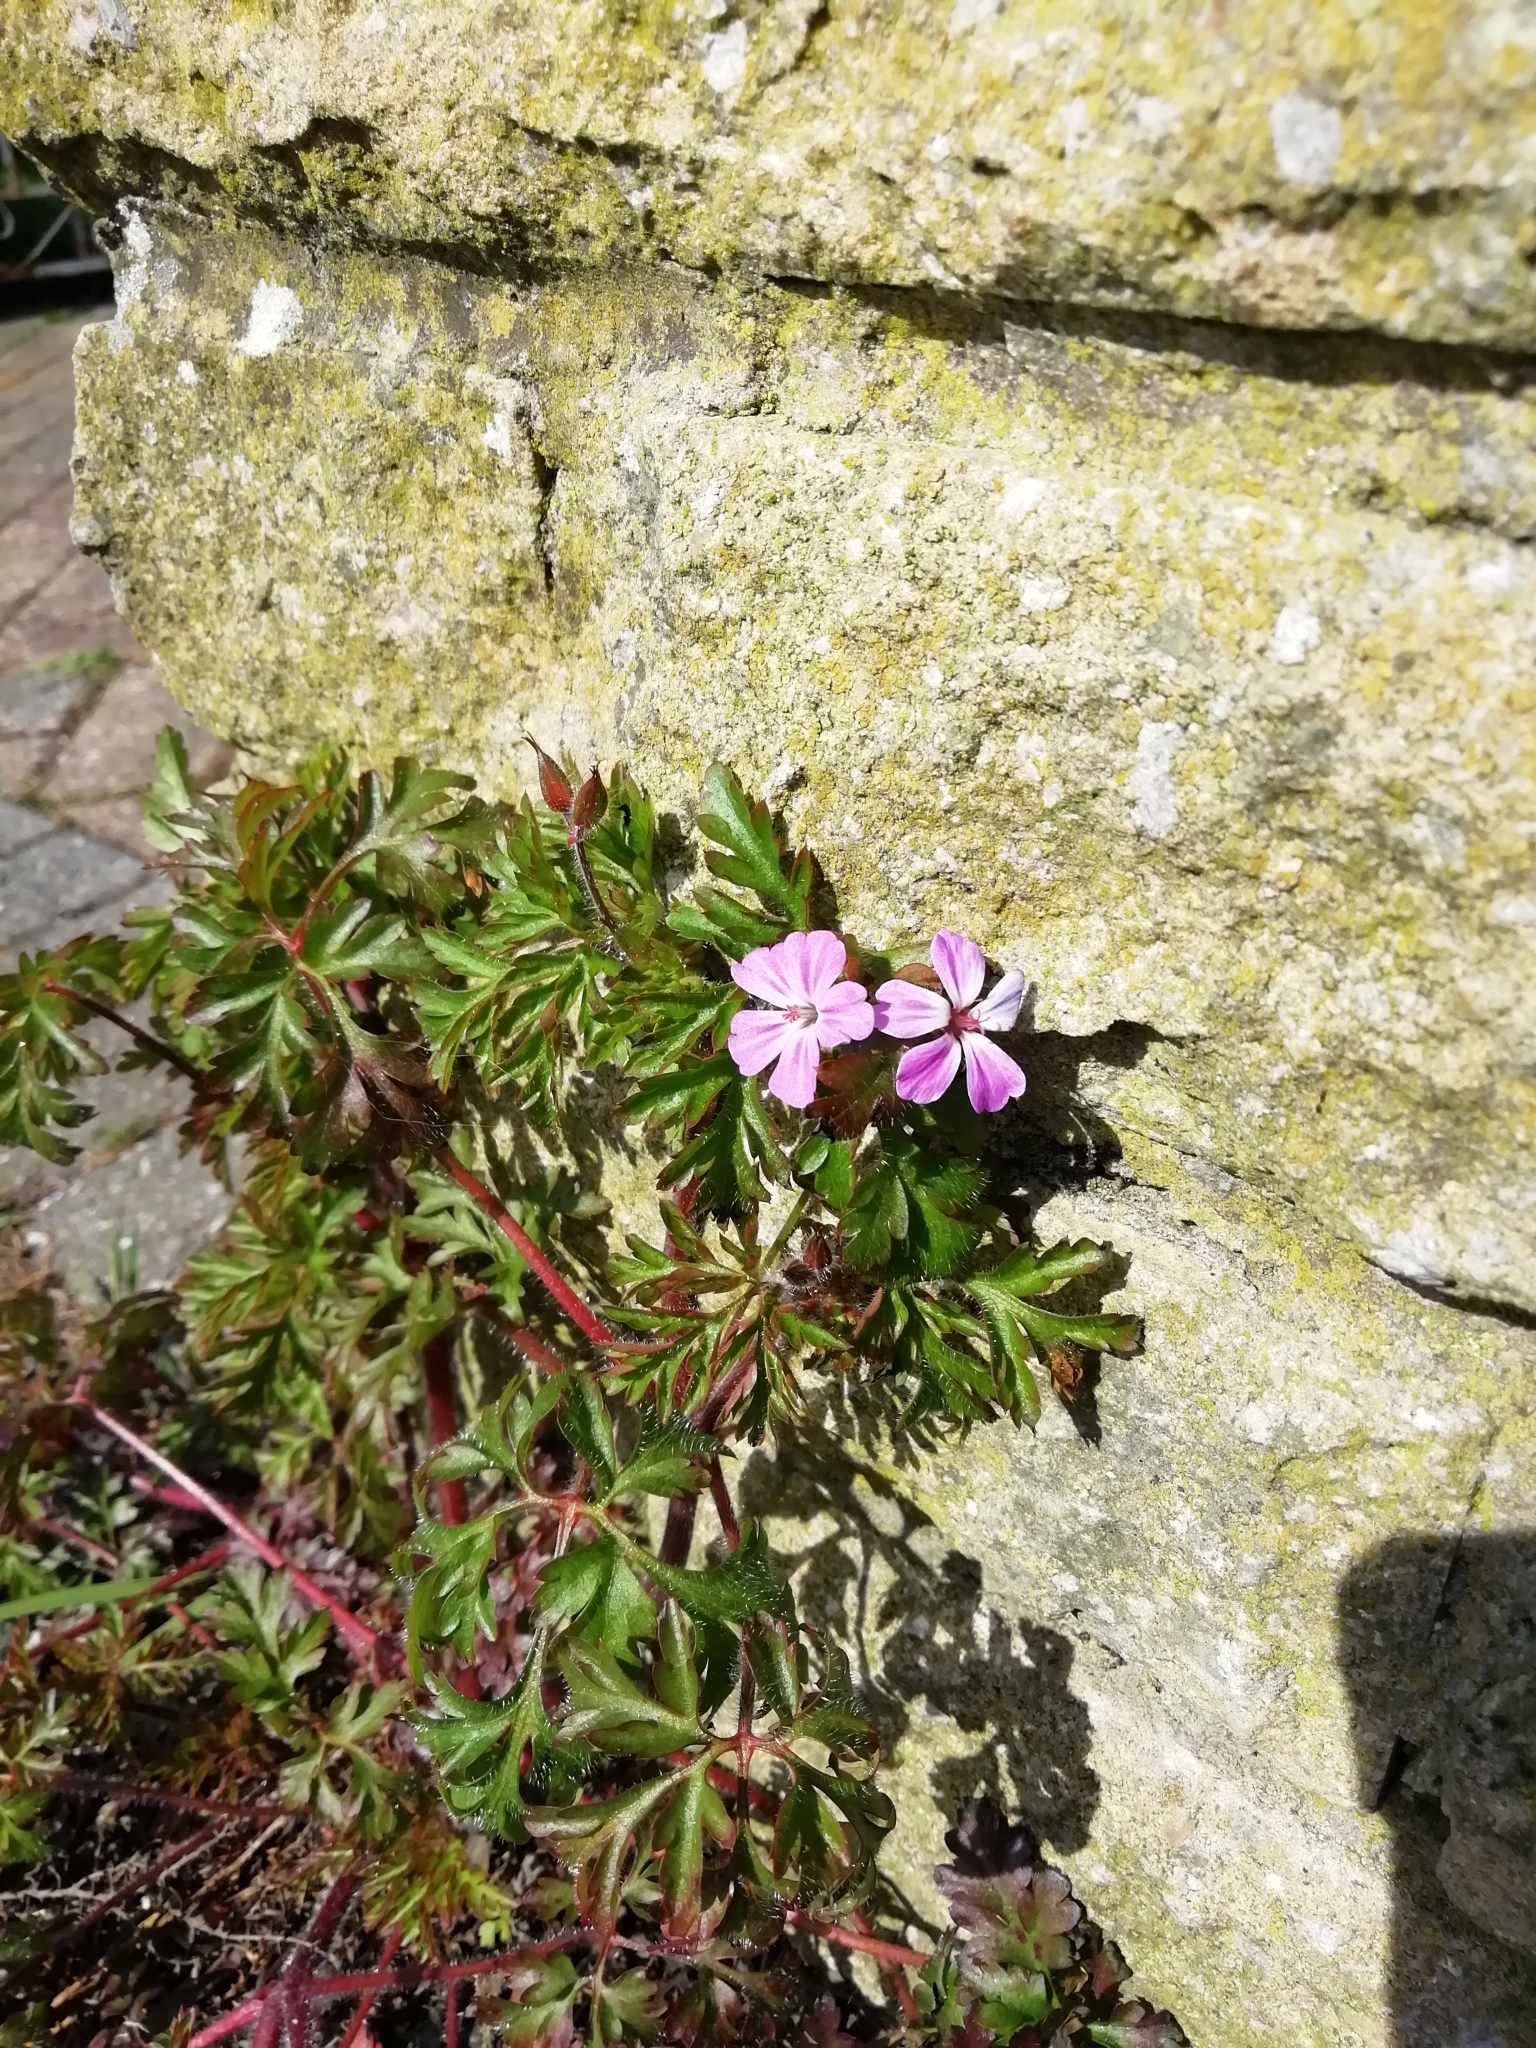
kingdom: Plantae
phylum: Tracheophyta
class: Magnoliopsida
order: Geraniales
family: Geraniaceae
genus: Geranium
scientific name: Geranium robertianum
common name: Herb-robert
